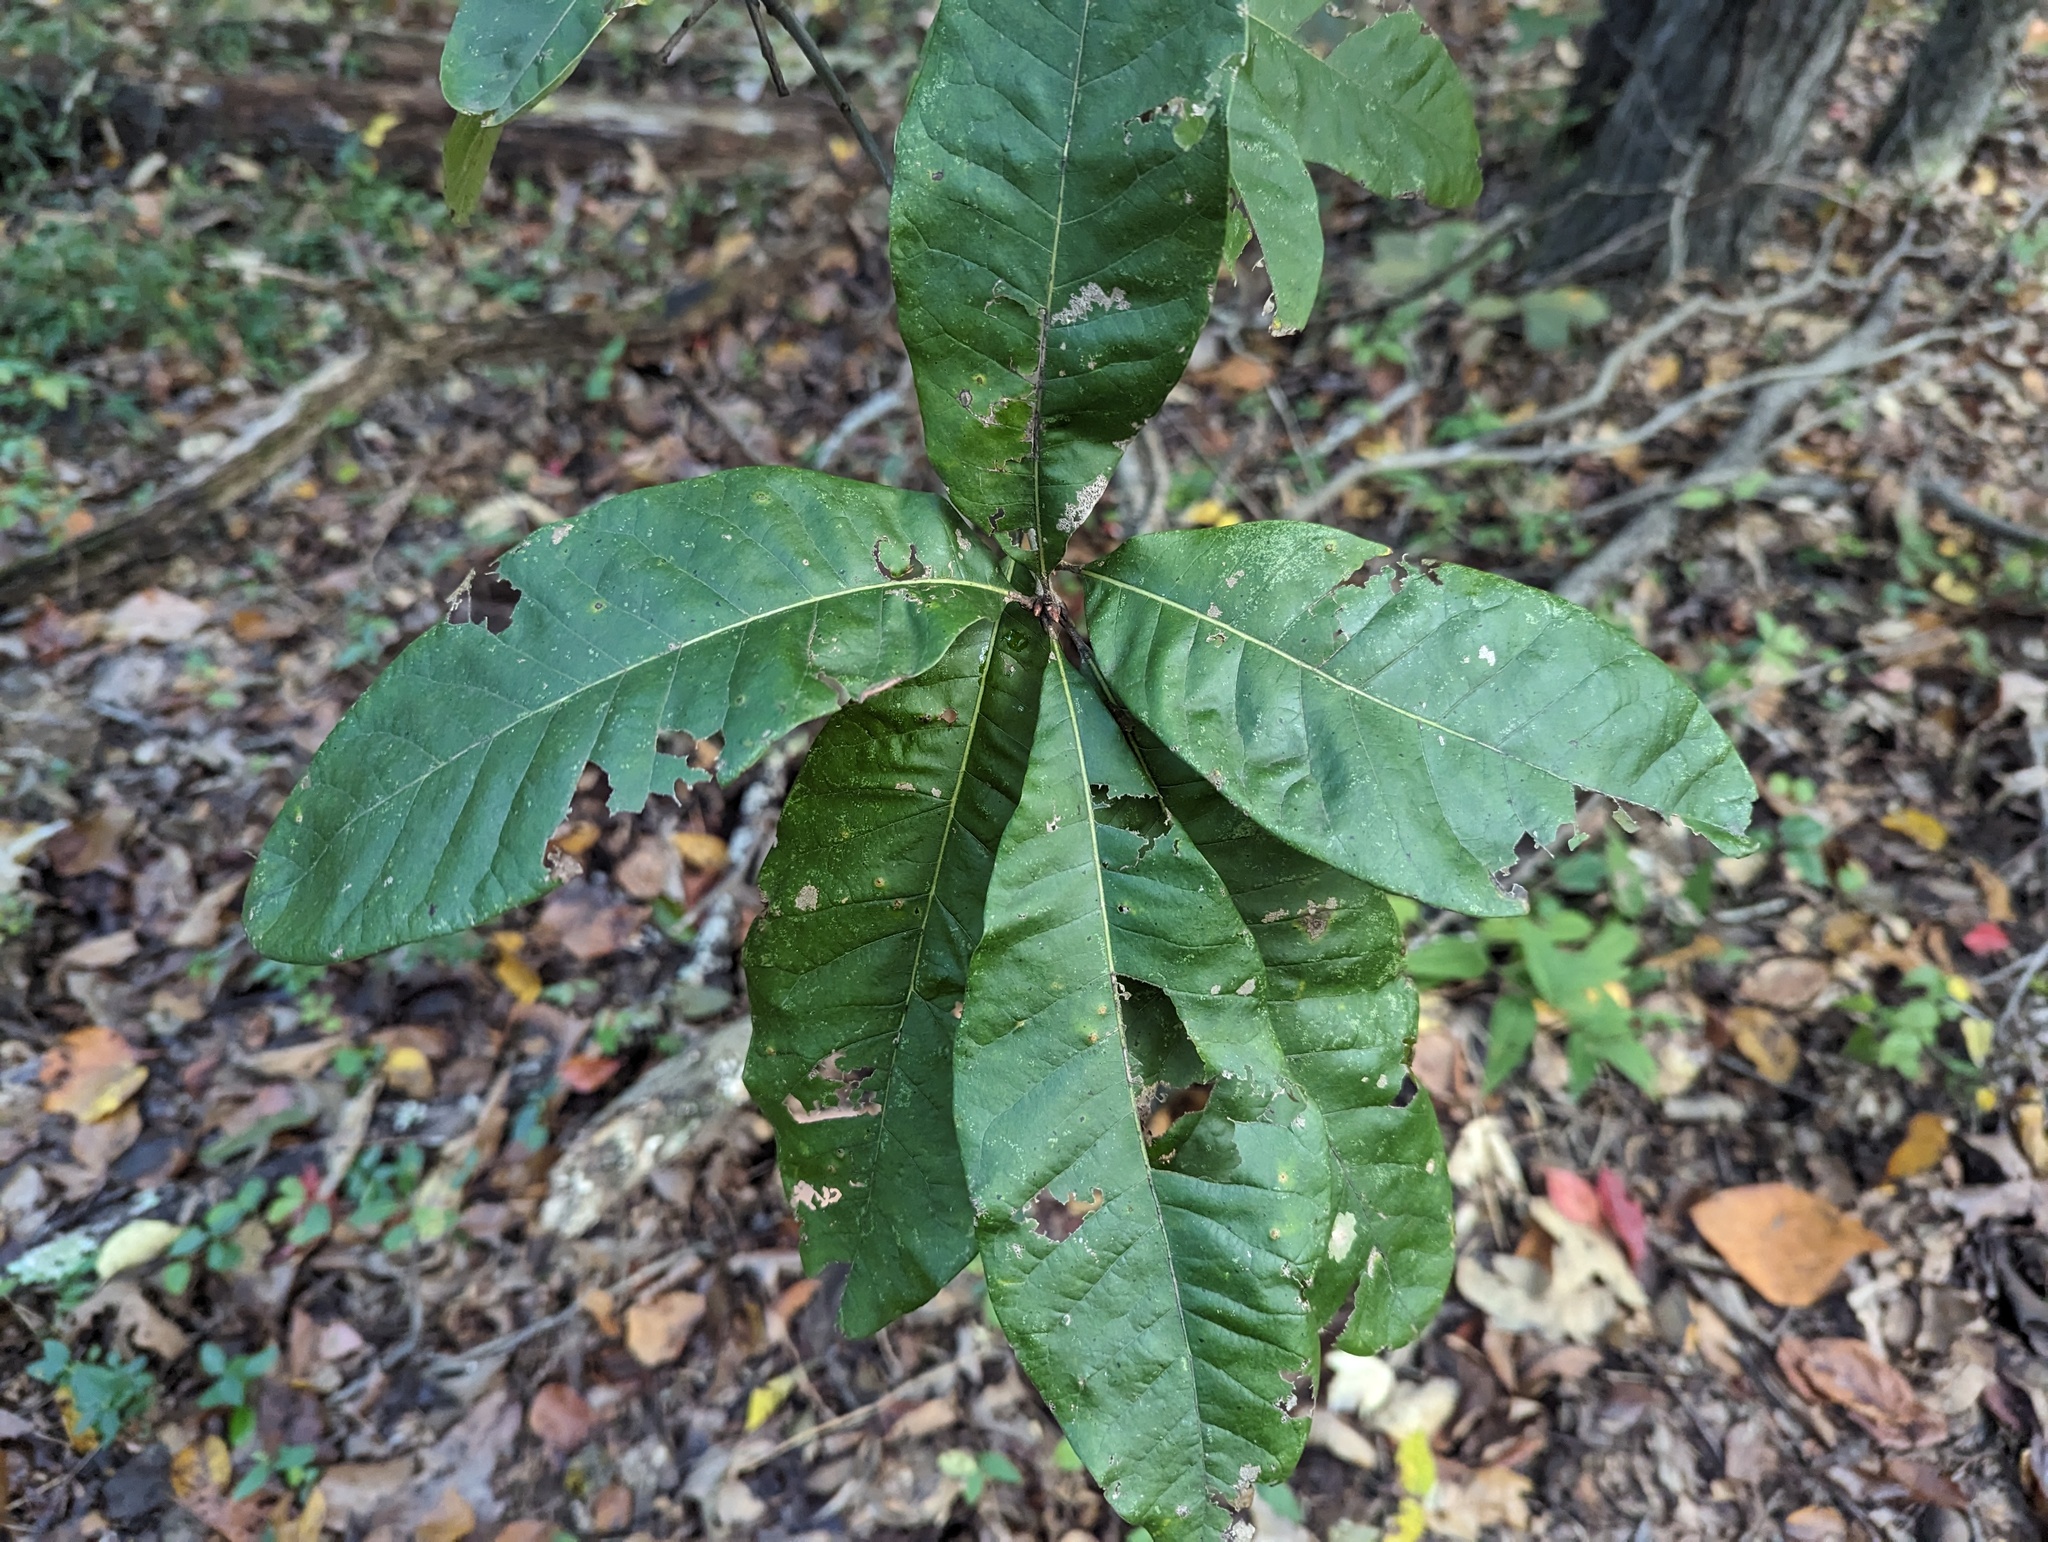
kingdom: Plantae
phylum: Tracheophyta
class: Magnoliopsida
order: Fagales
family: Fagaceae
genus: Quercus
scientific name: Quercus imbricaria
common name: Shingle oak
